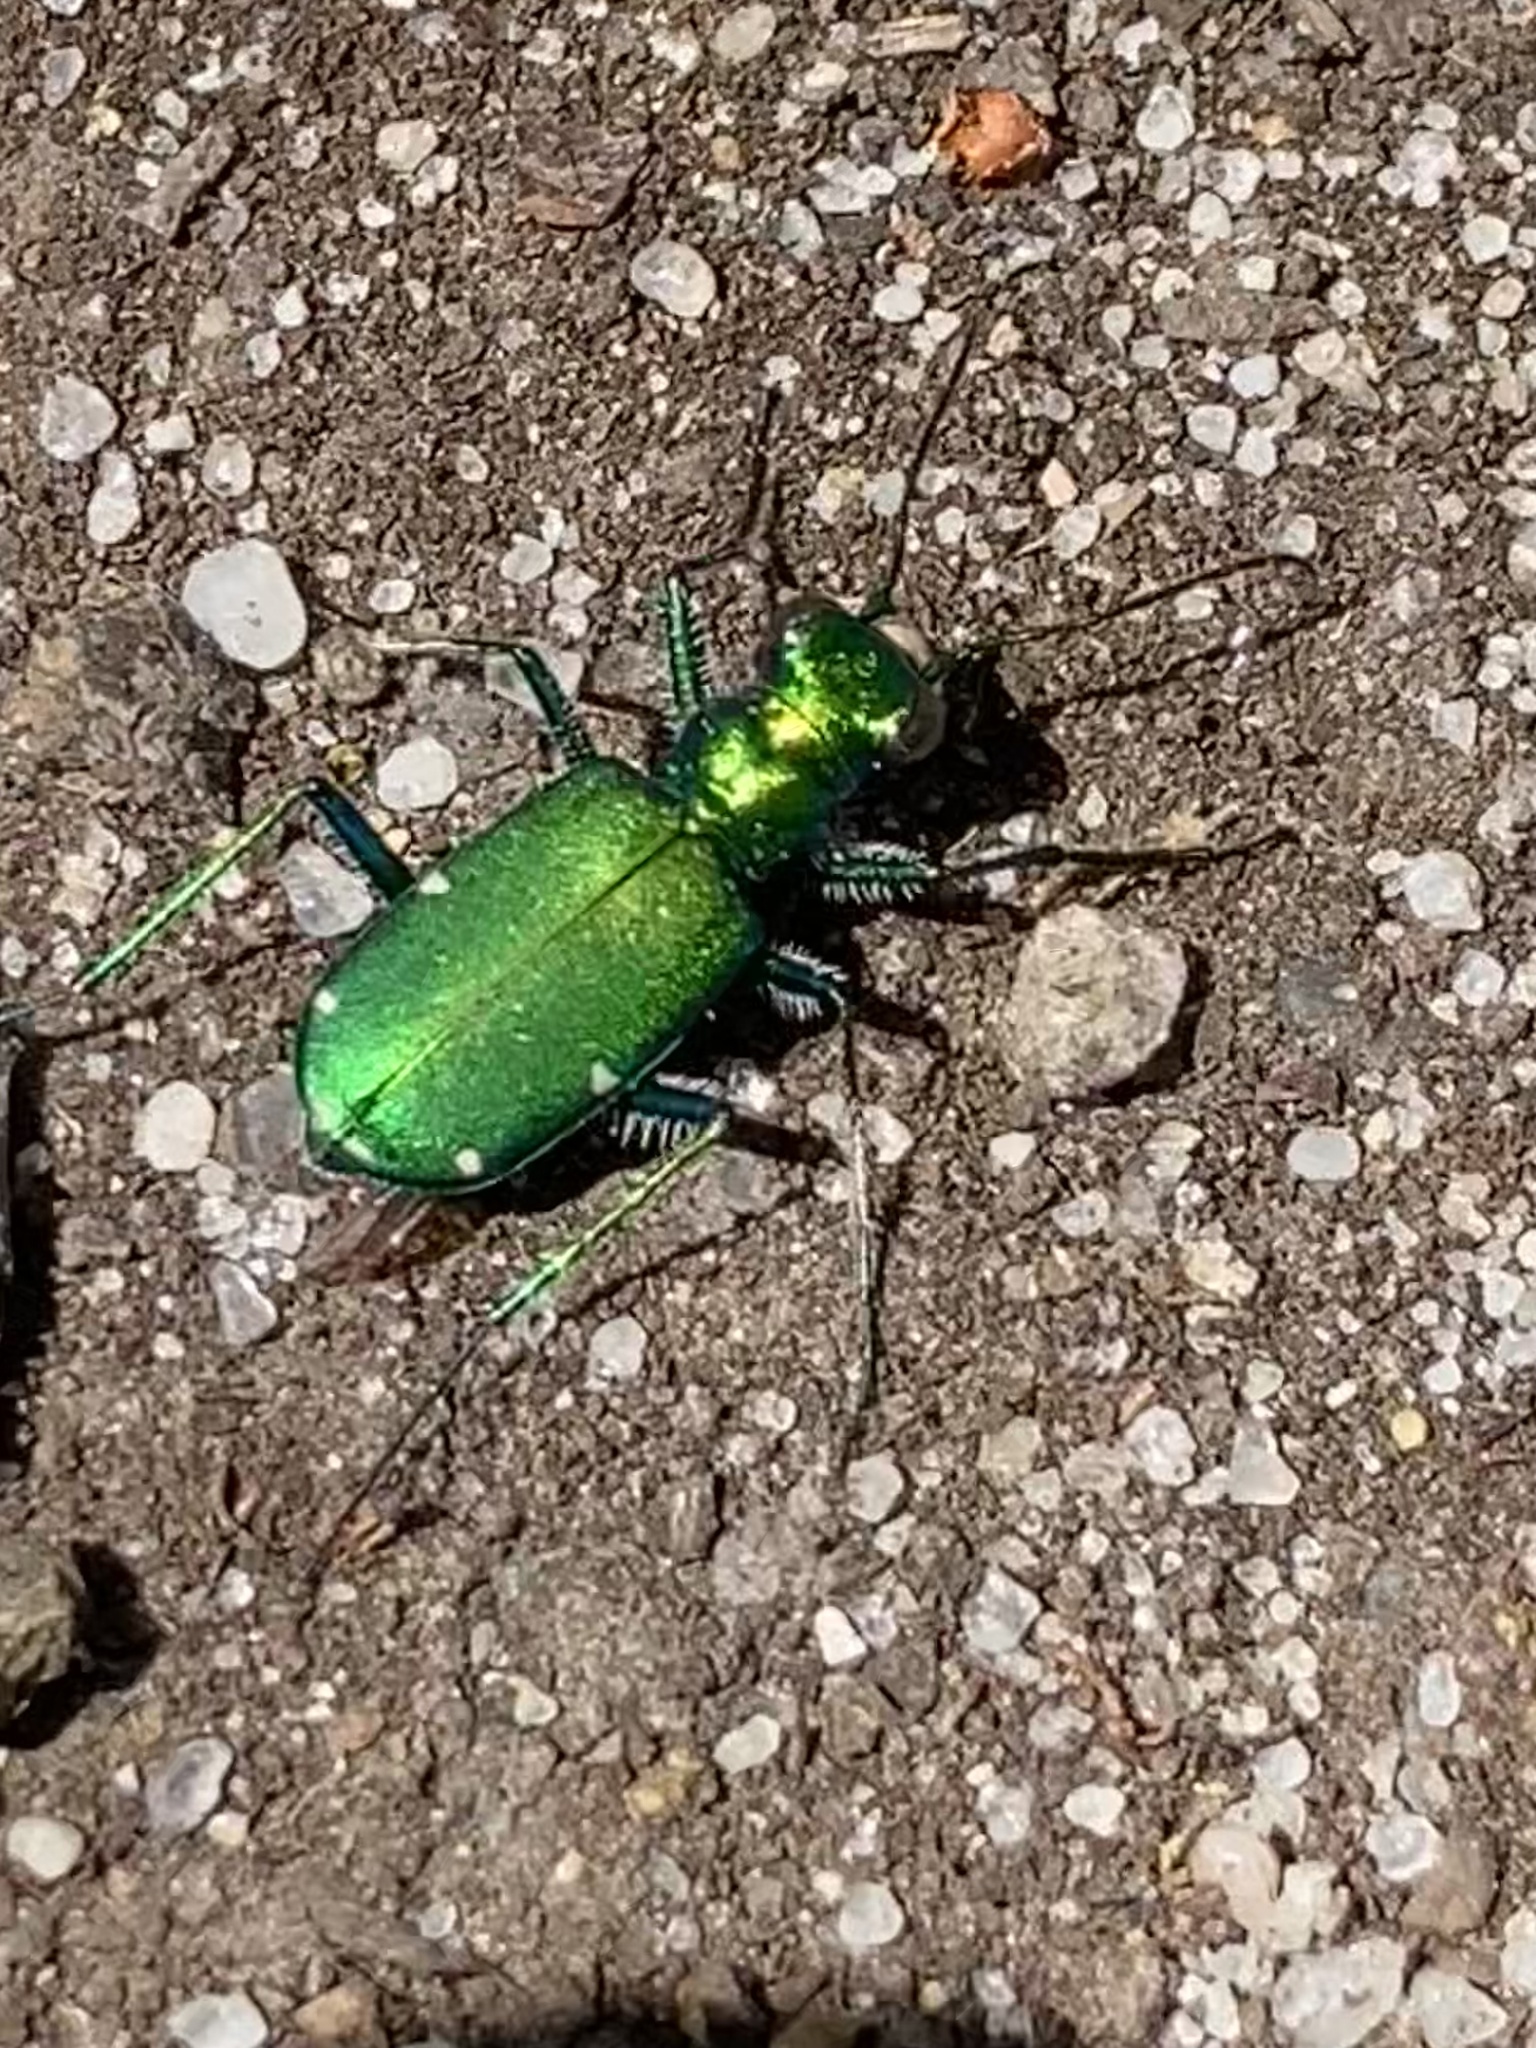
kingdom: Animalia
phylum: Arthropoda
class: Insecta
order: Coleoptera
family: Carabidae
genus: Cicindela
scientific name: Cicindela sexguttata
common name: Six-spotted tiger beetle
